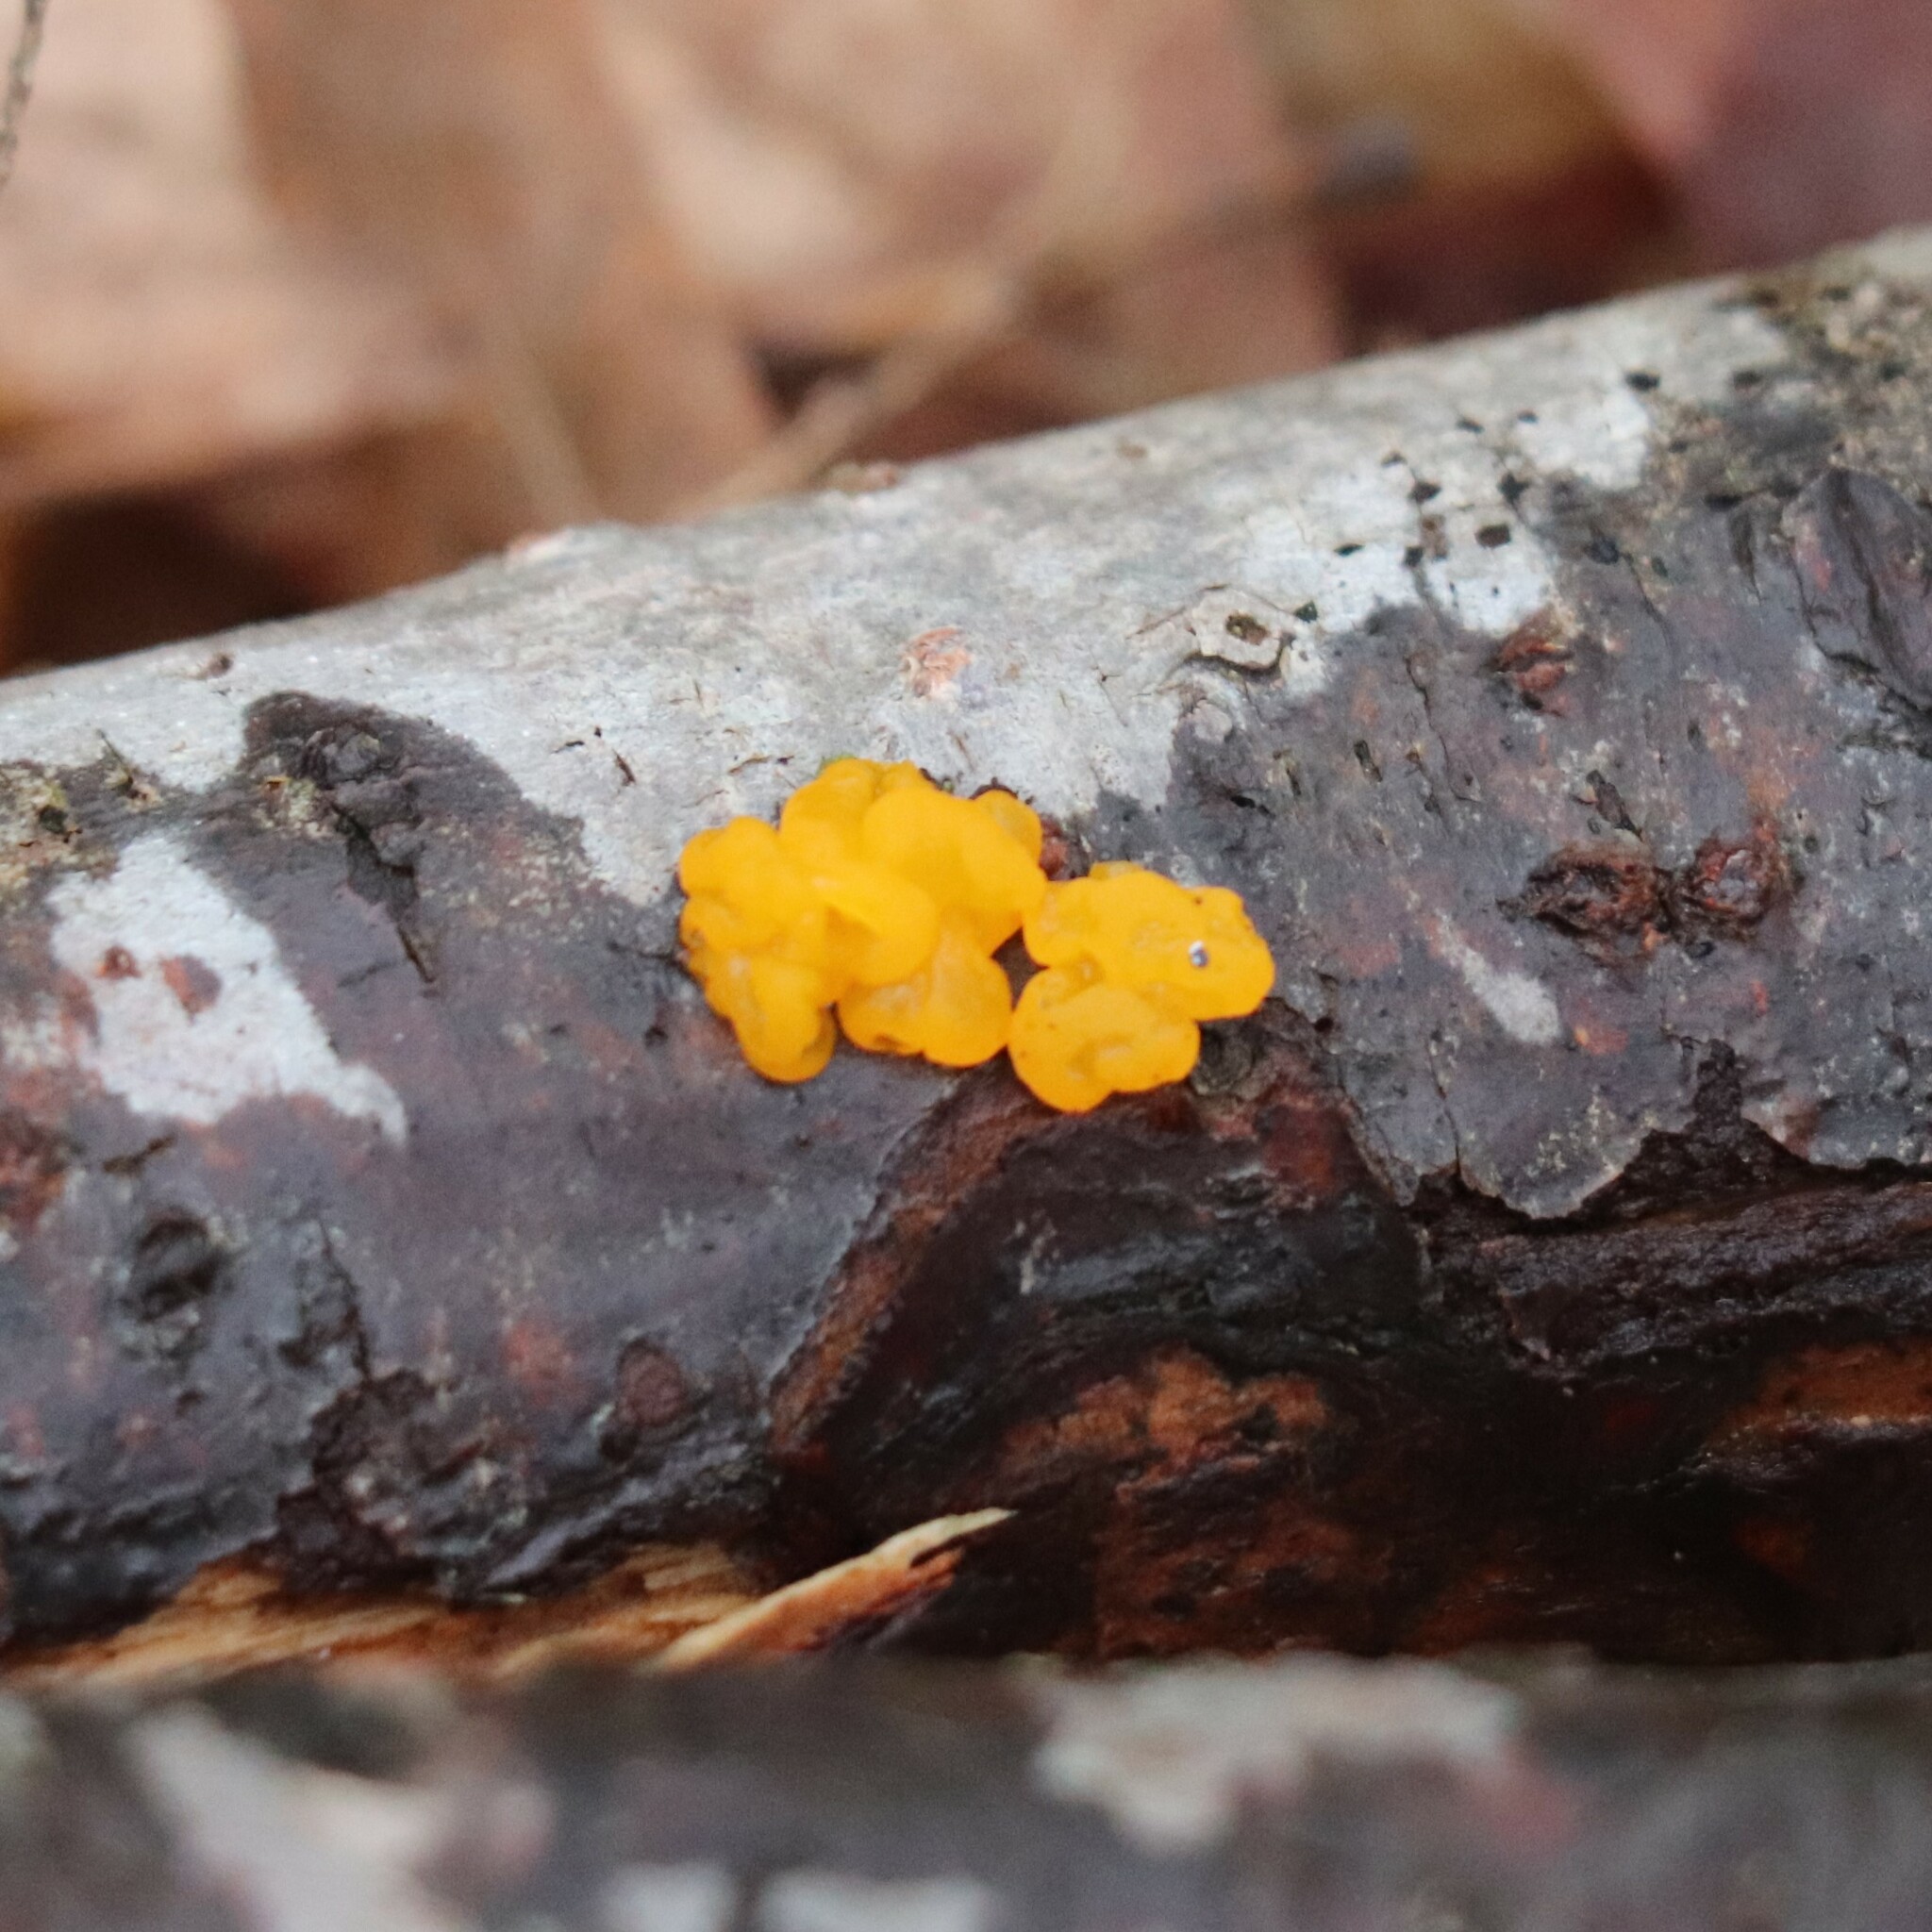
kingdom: Fungi
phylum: Basidiomycota
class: Tremellomycetes
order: Tremellales
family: Tremellaceae
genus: Tremella
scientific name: Tremella mesenterica
